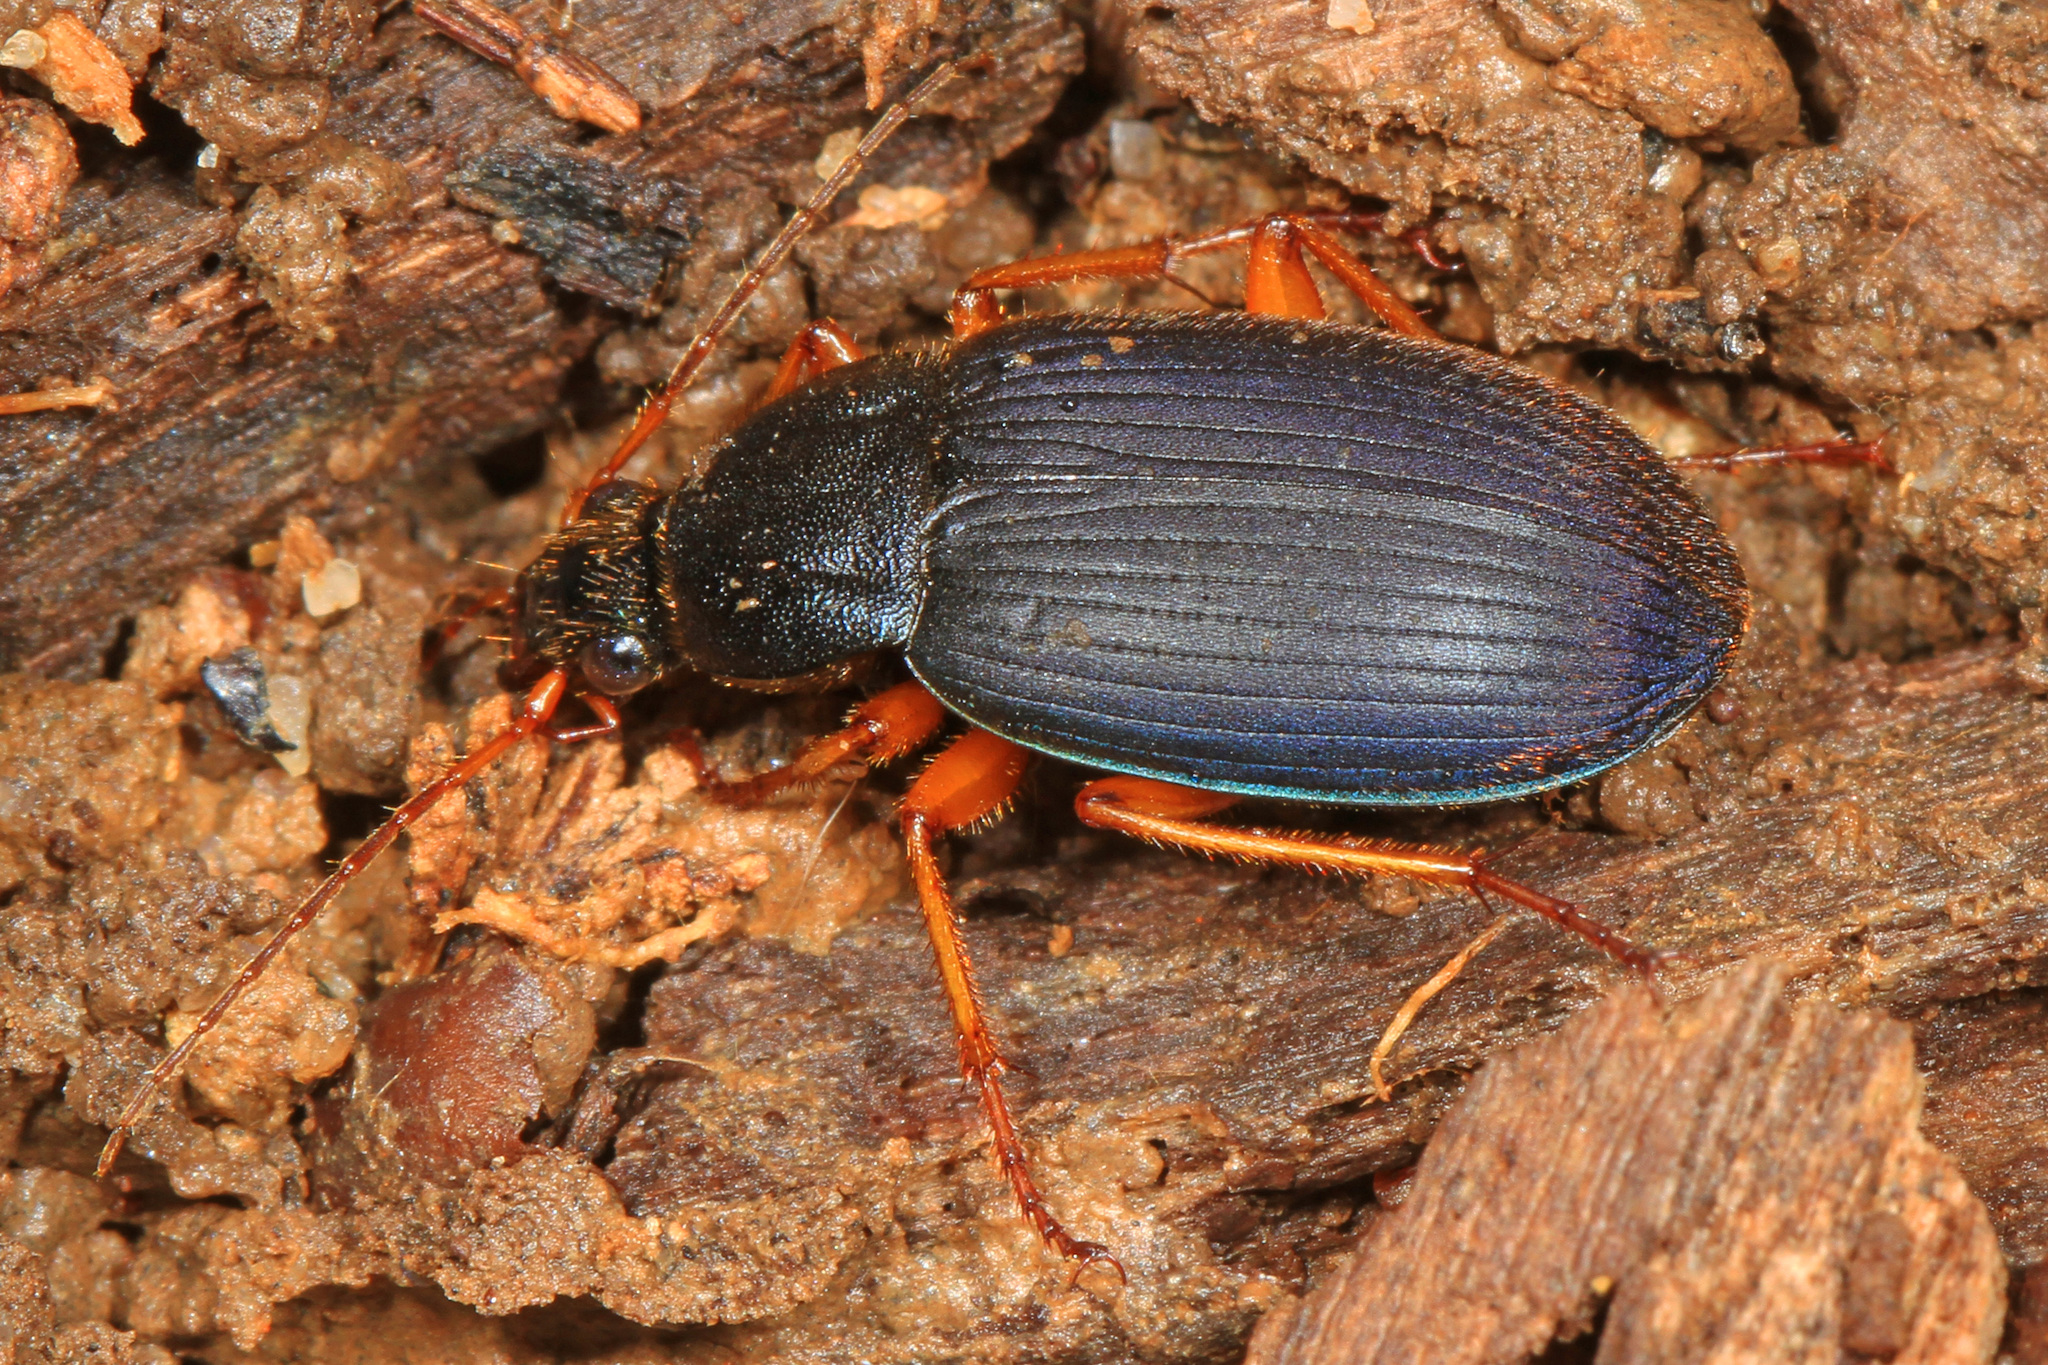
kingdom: Animalia
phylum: Arthropoda
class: Insecta
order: Coleoptera
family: Carabidae
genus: Chlaenius
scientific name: Chlaenius laticollis
